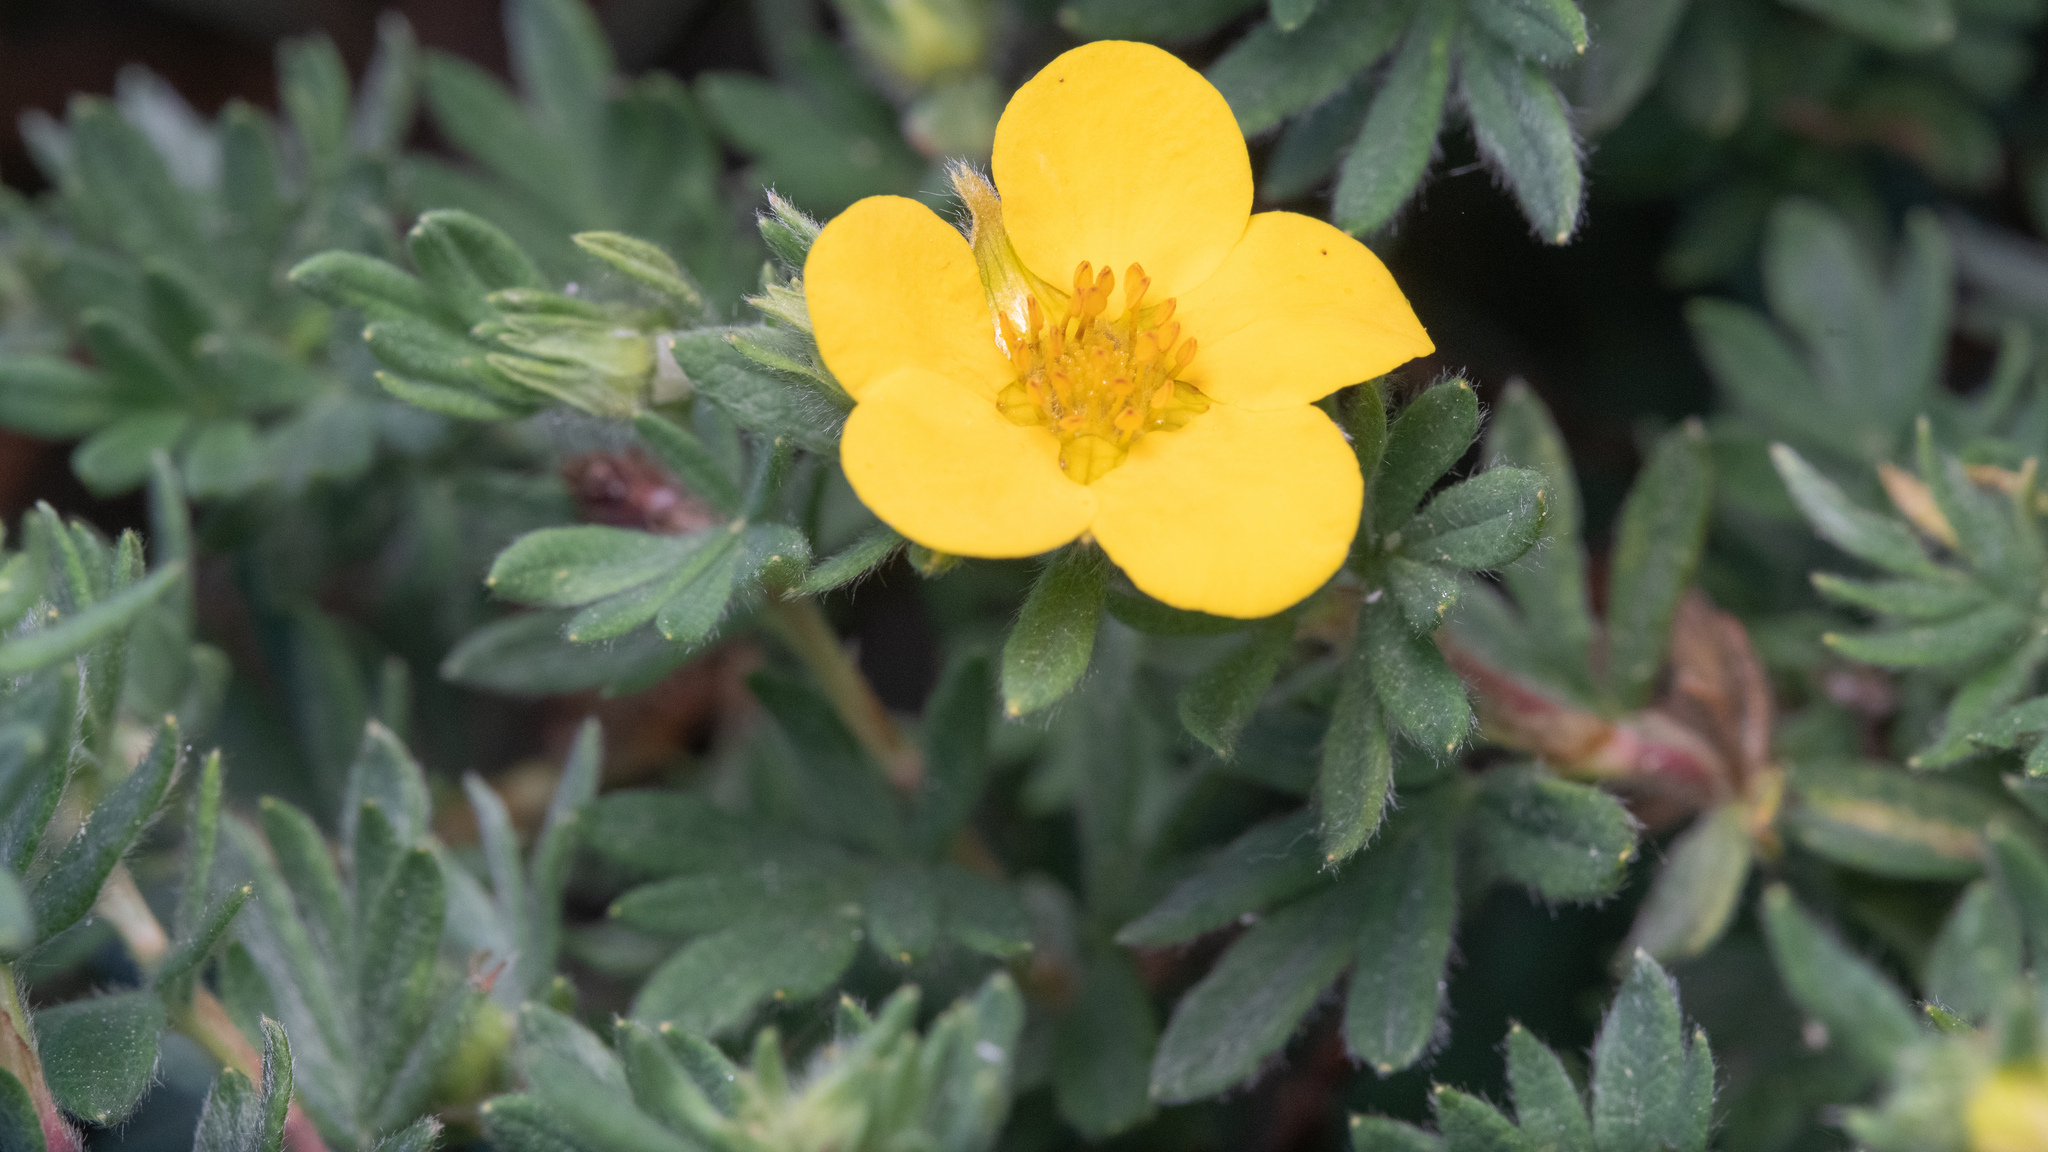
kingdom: Plantae
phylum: Tracheophyta
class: Magnoliopsida
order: Rosales
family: Rosaceae
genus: Dasiphora
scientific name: Dasiphora fruticosa
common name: Shrubby cinquefoil
